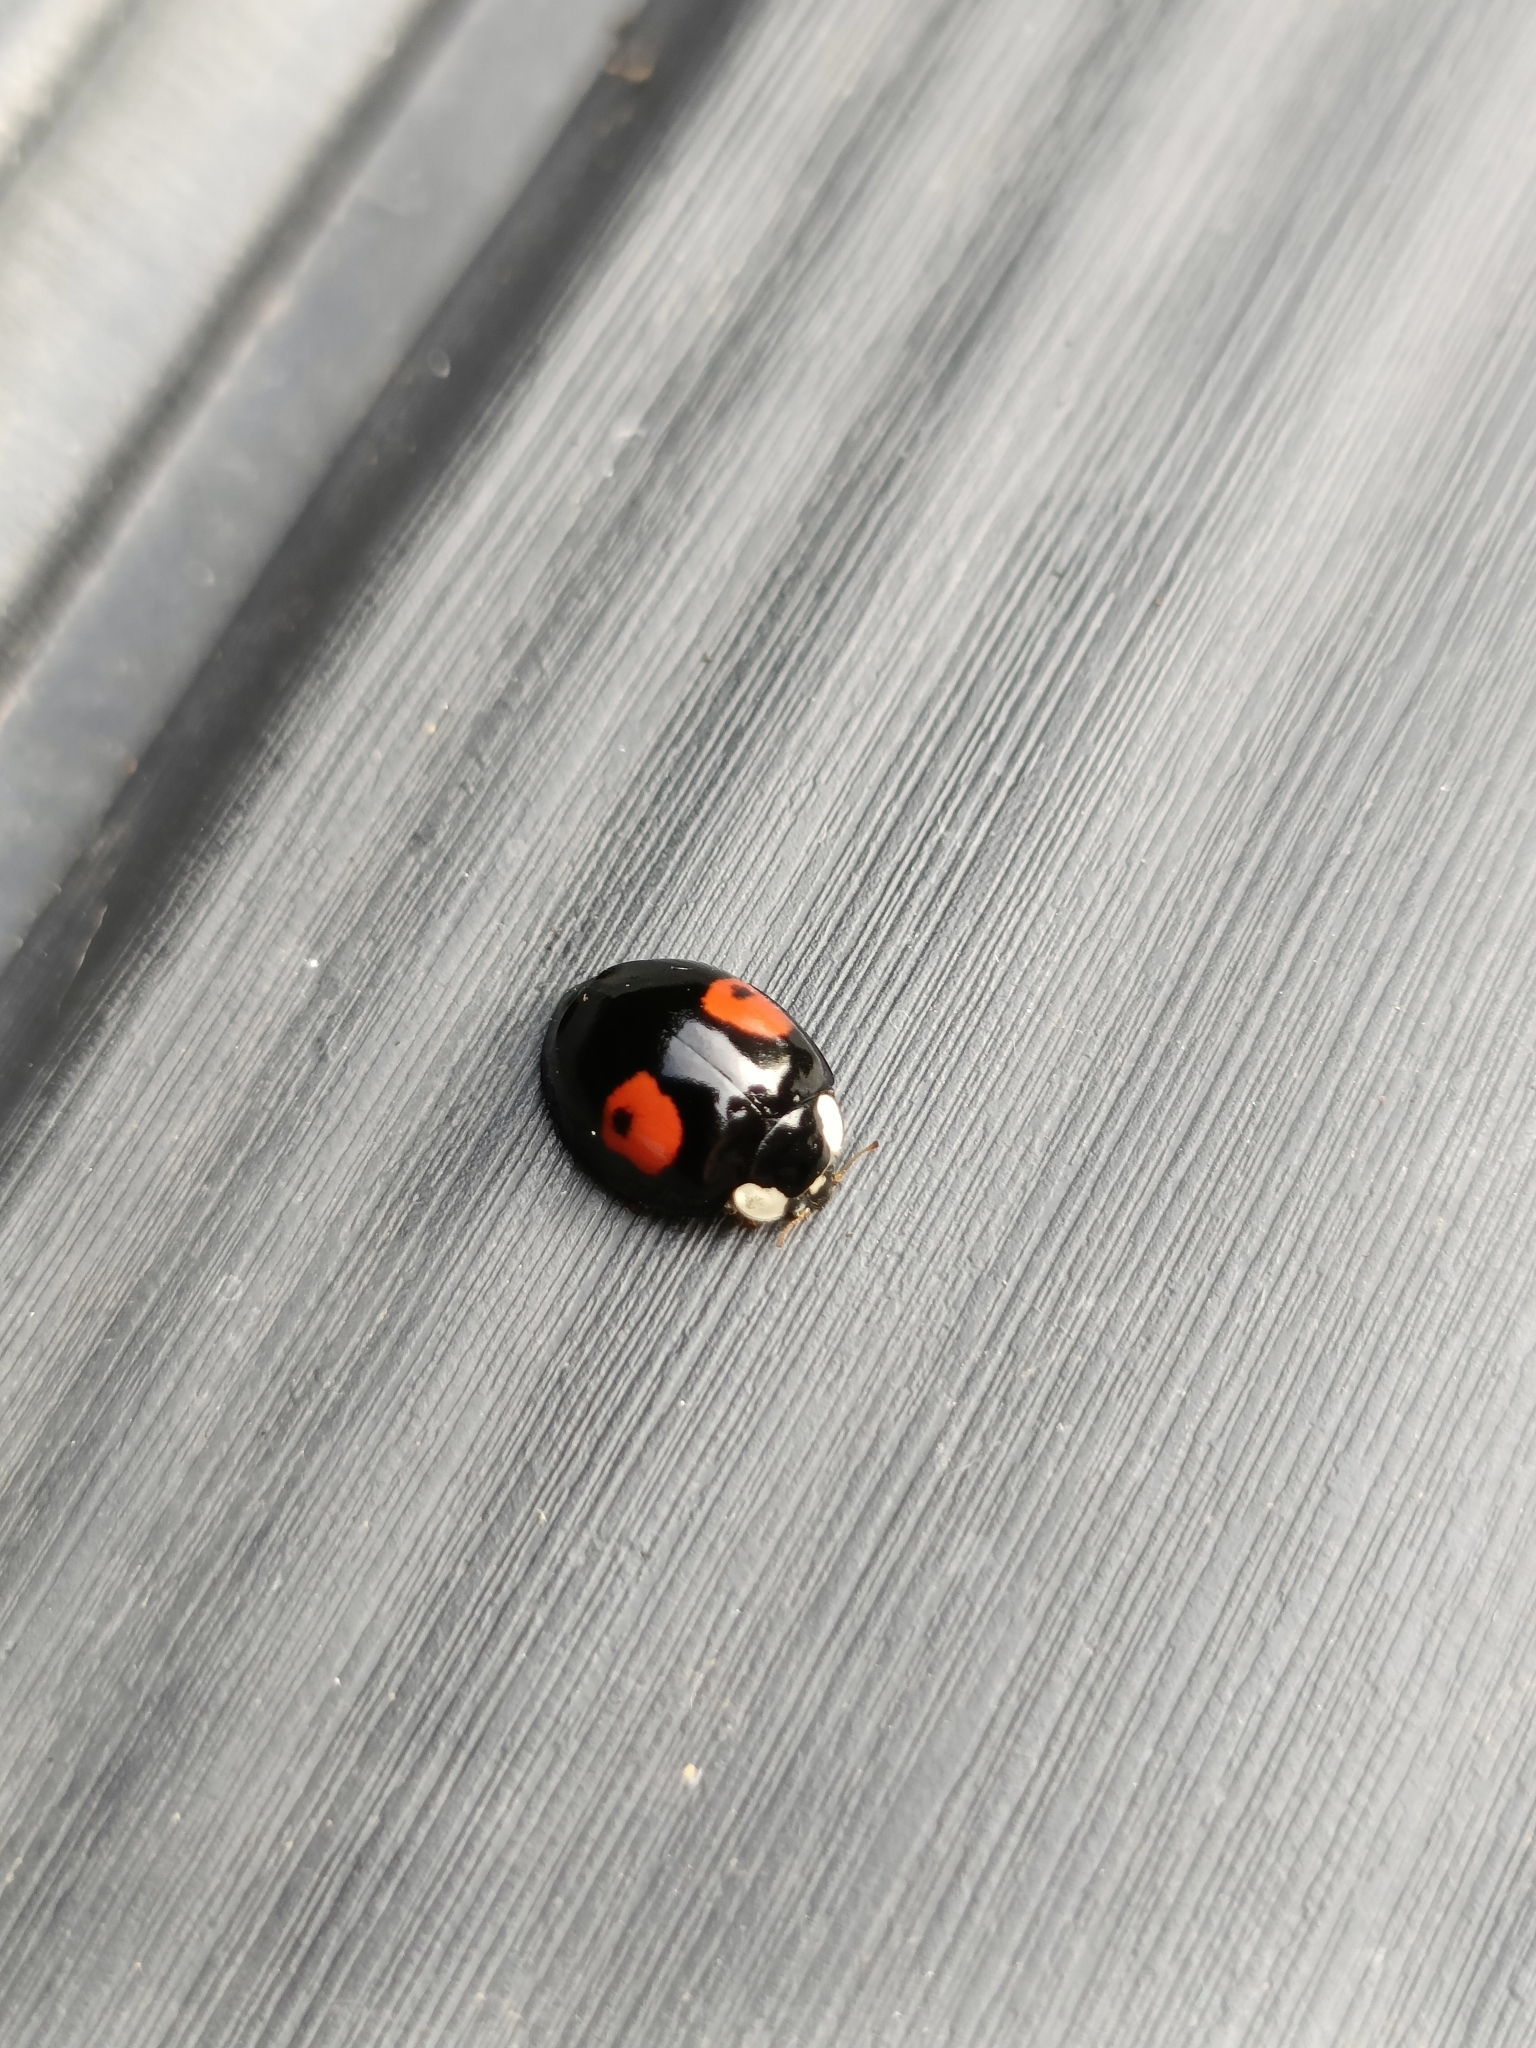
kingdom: Animalia
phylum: Arthropoda
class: Insecta
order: Coleoptera
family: Coccinellidae
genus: Harmonia
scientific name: Harmonia axyridis
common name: Harlequin ladybird
